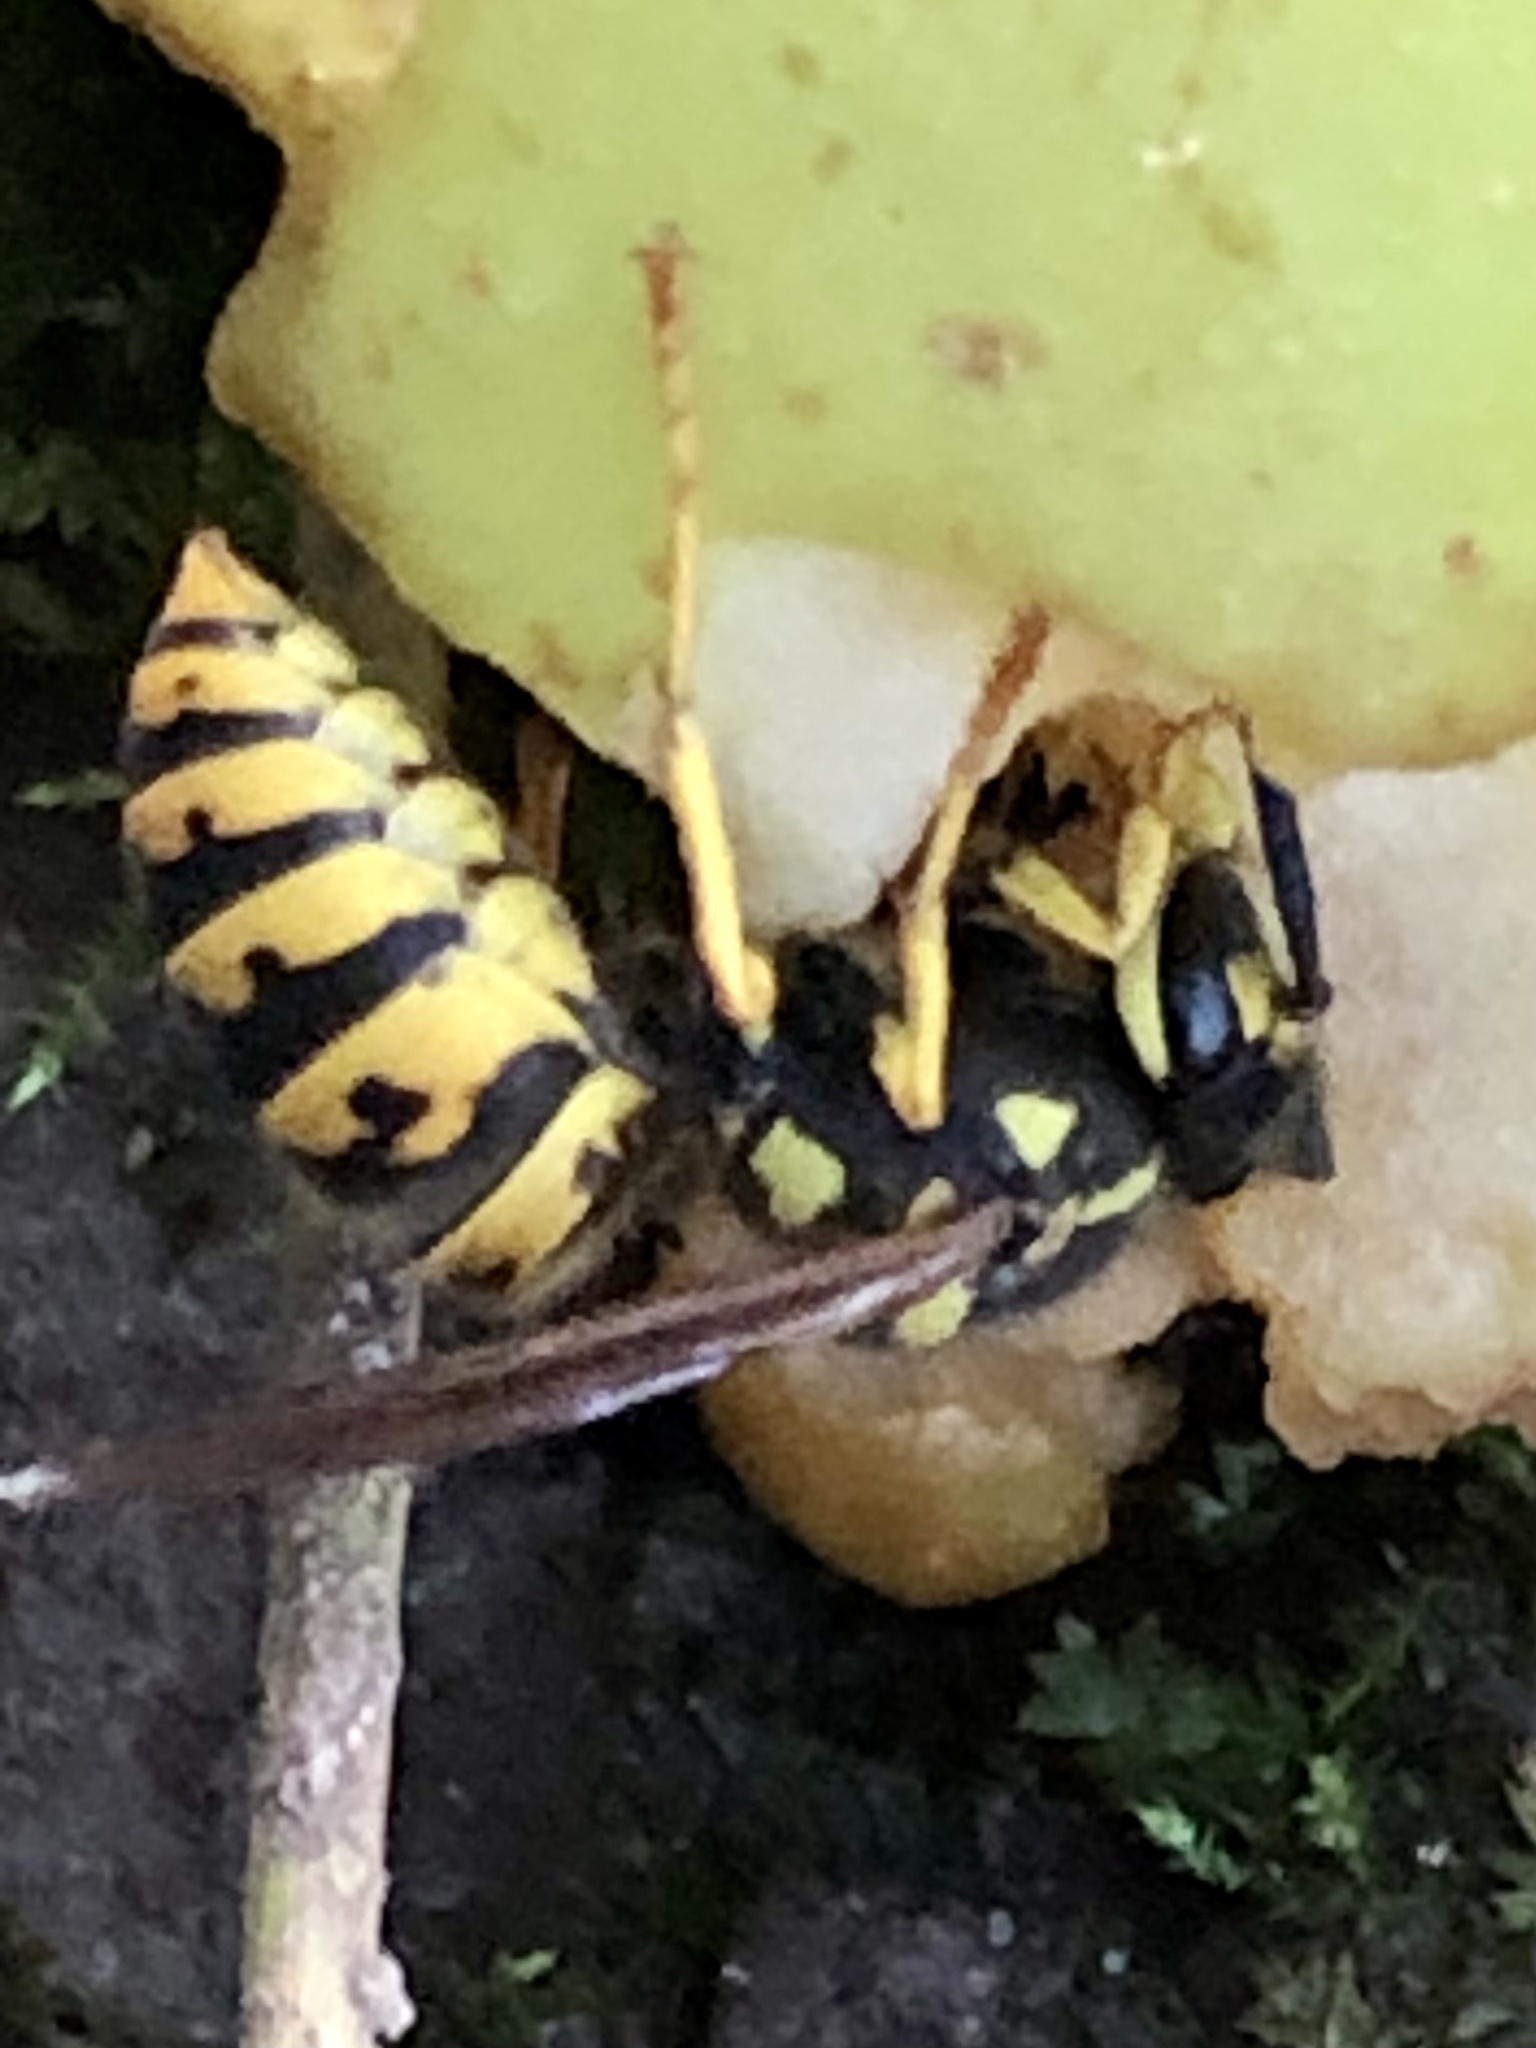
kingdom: Animalia
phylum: Arthropoda
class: Insecta
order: Hymenoptera
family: Vespidae
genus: Vespula
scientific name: Vespula germanica
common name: German wasp
